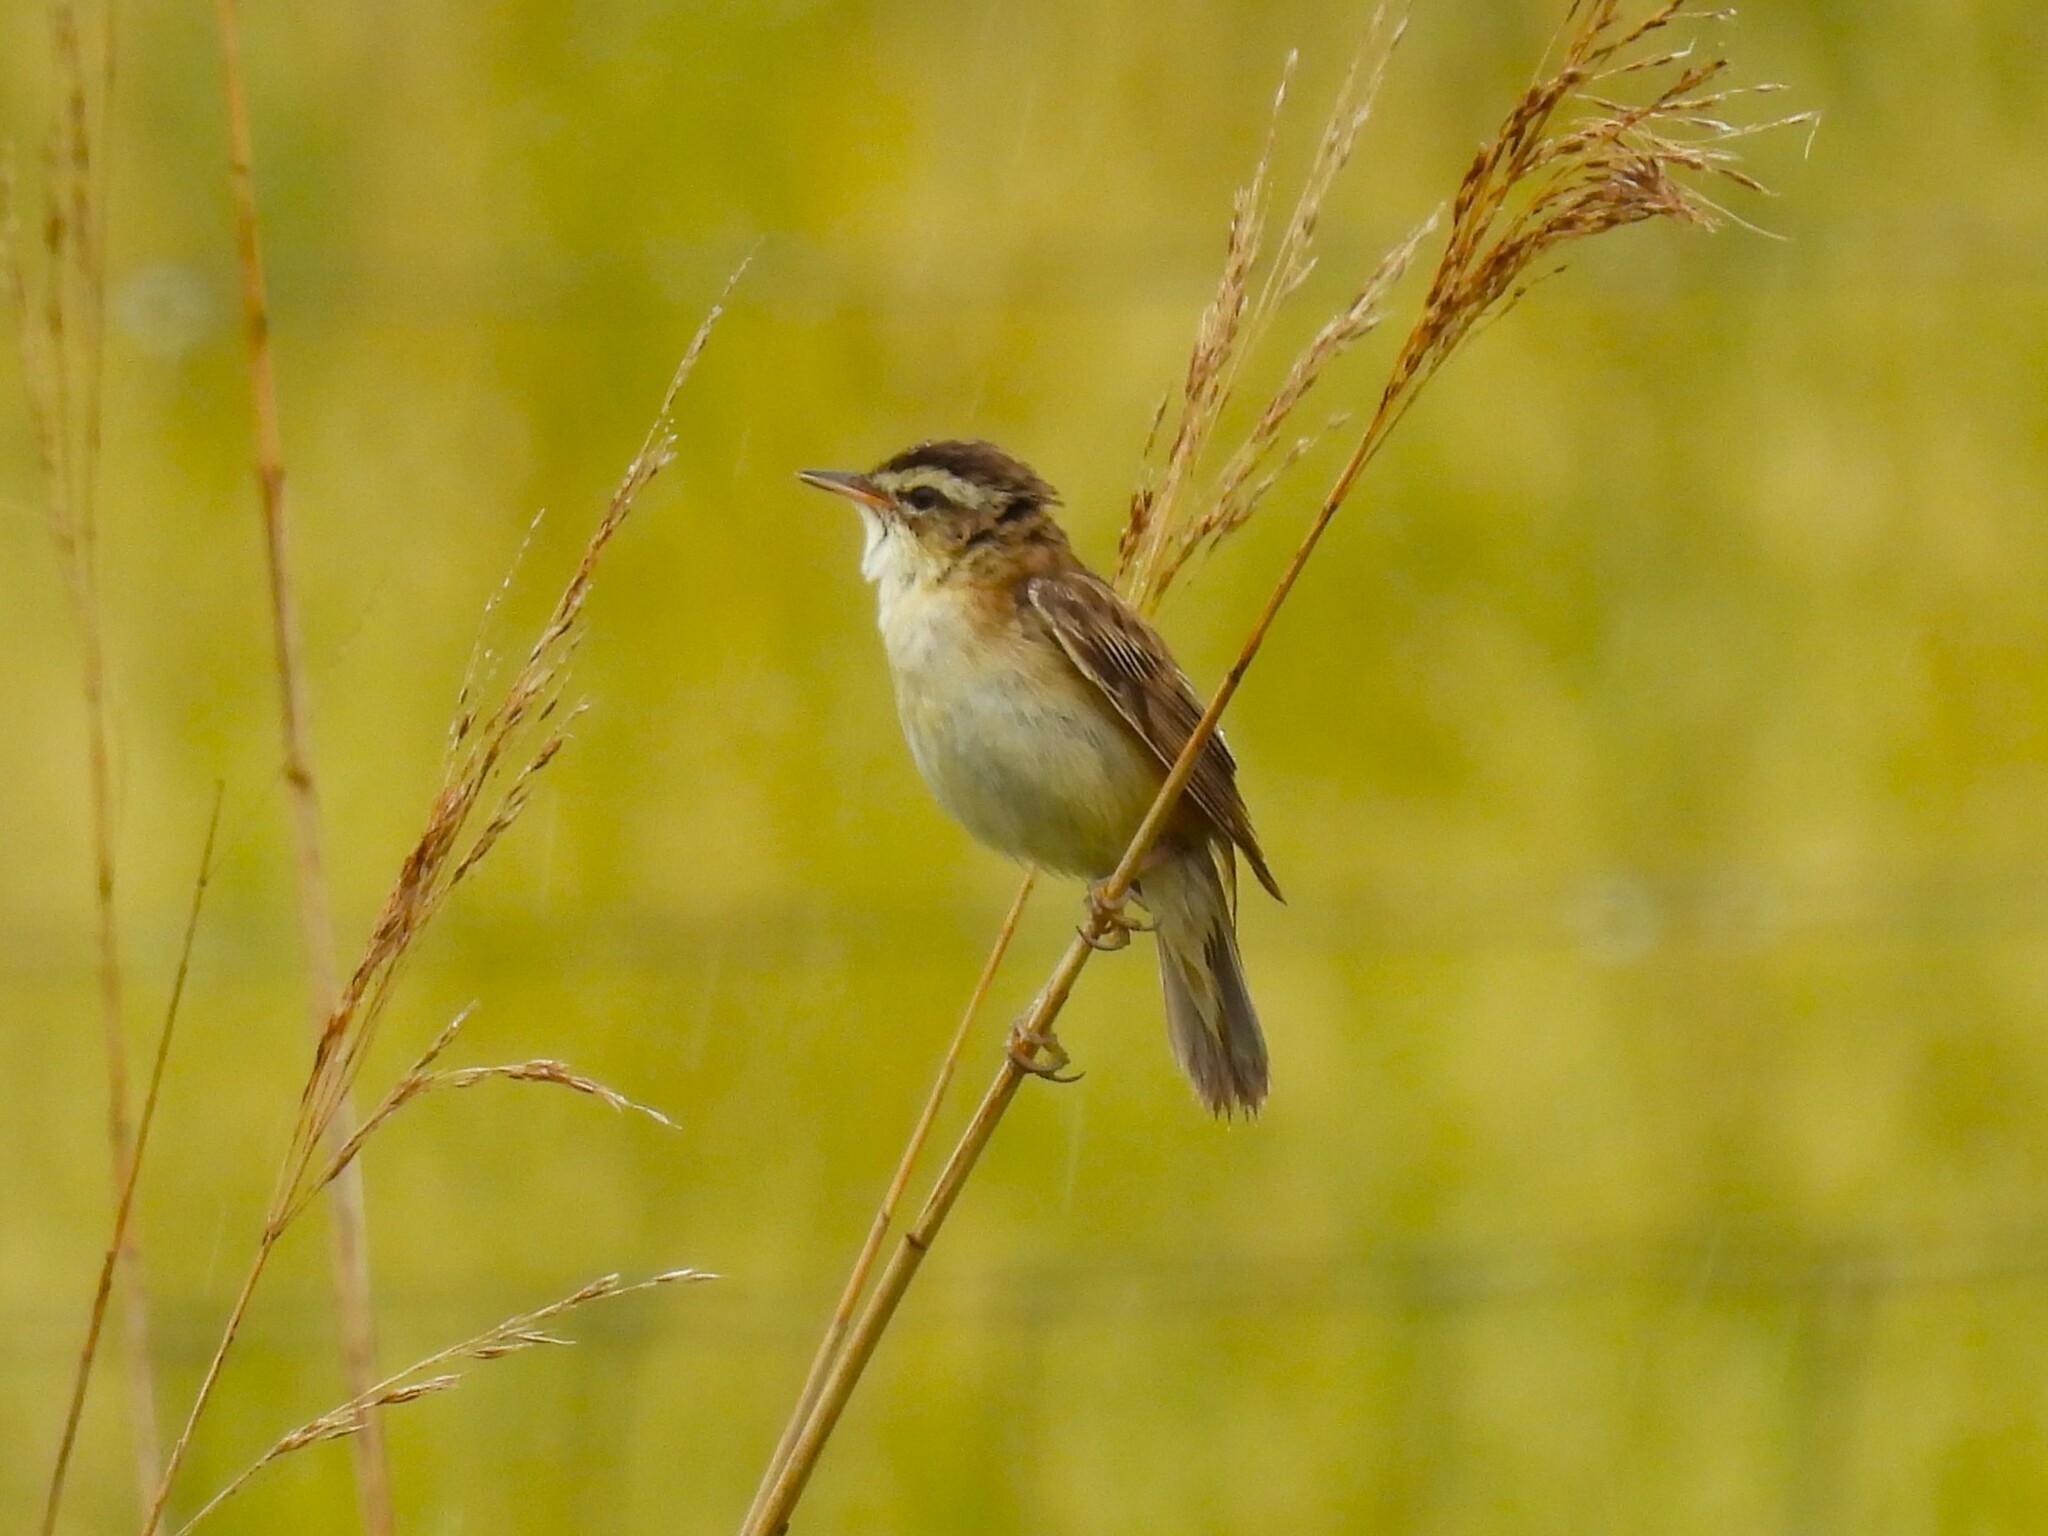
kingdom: Animalia
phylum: Chordata
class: Aves
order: Passeriformes
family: Acrocephalidae
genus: Acrocephalus
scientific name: Acrocephalus schoenobaenus
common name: Sedge warbler
